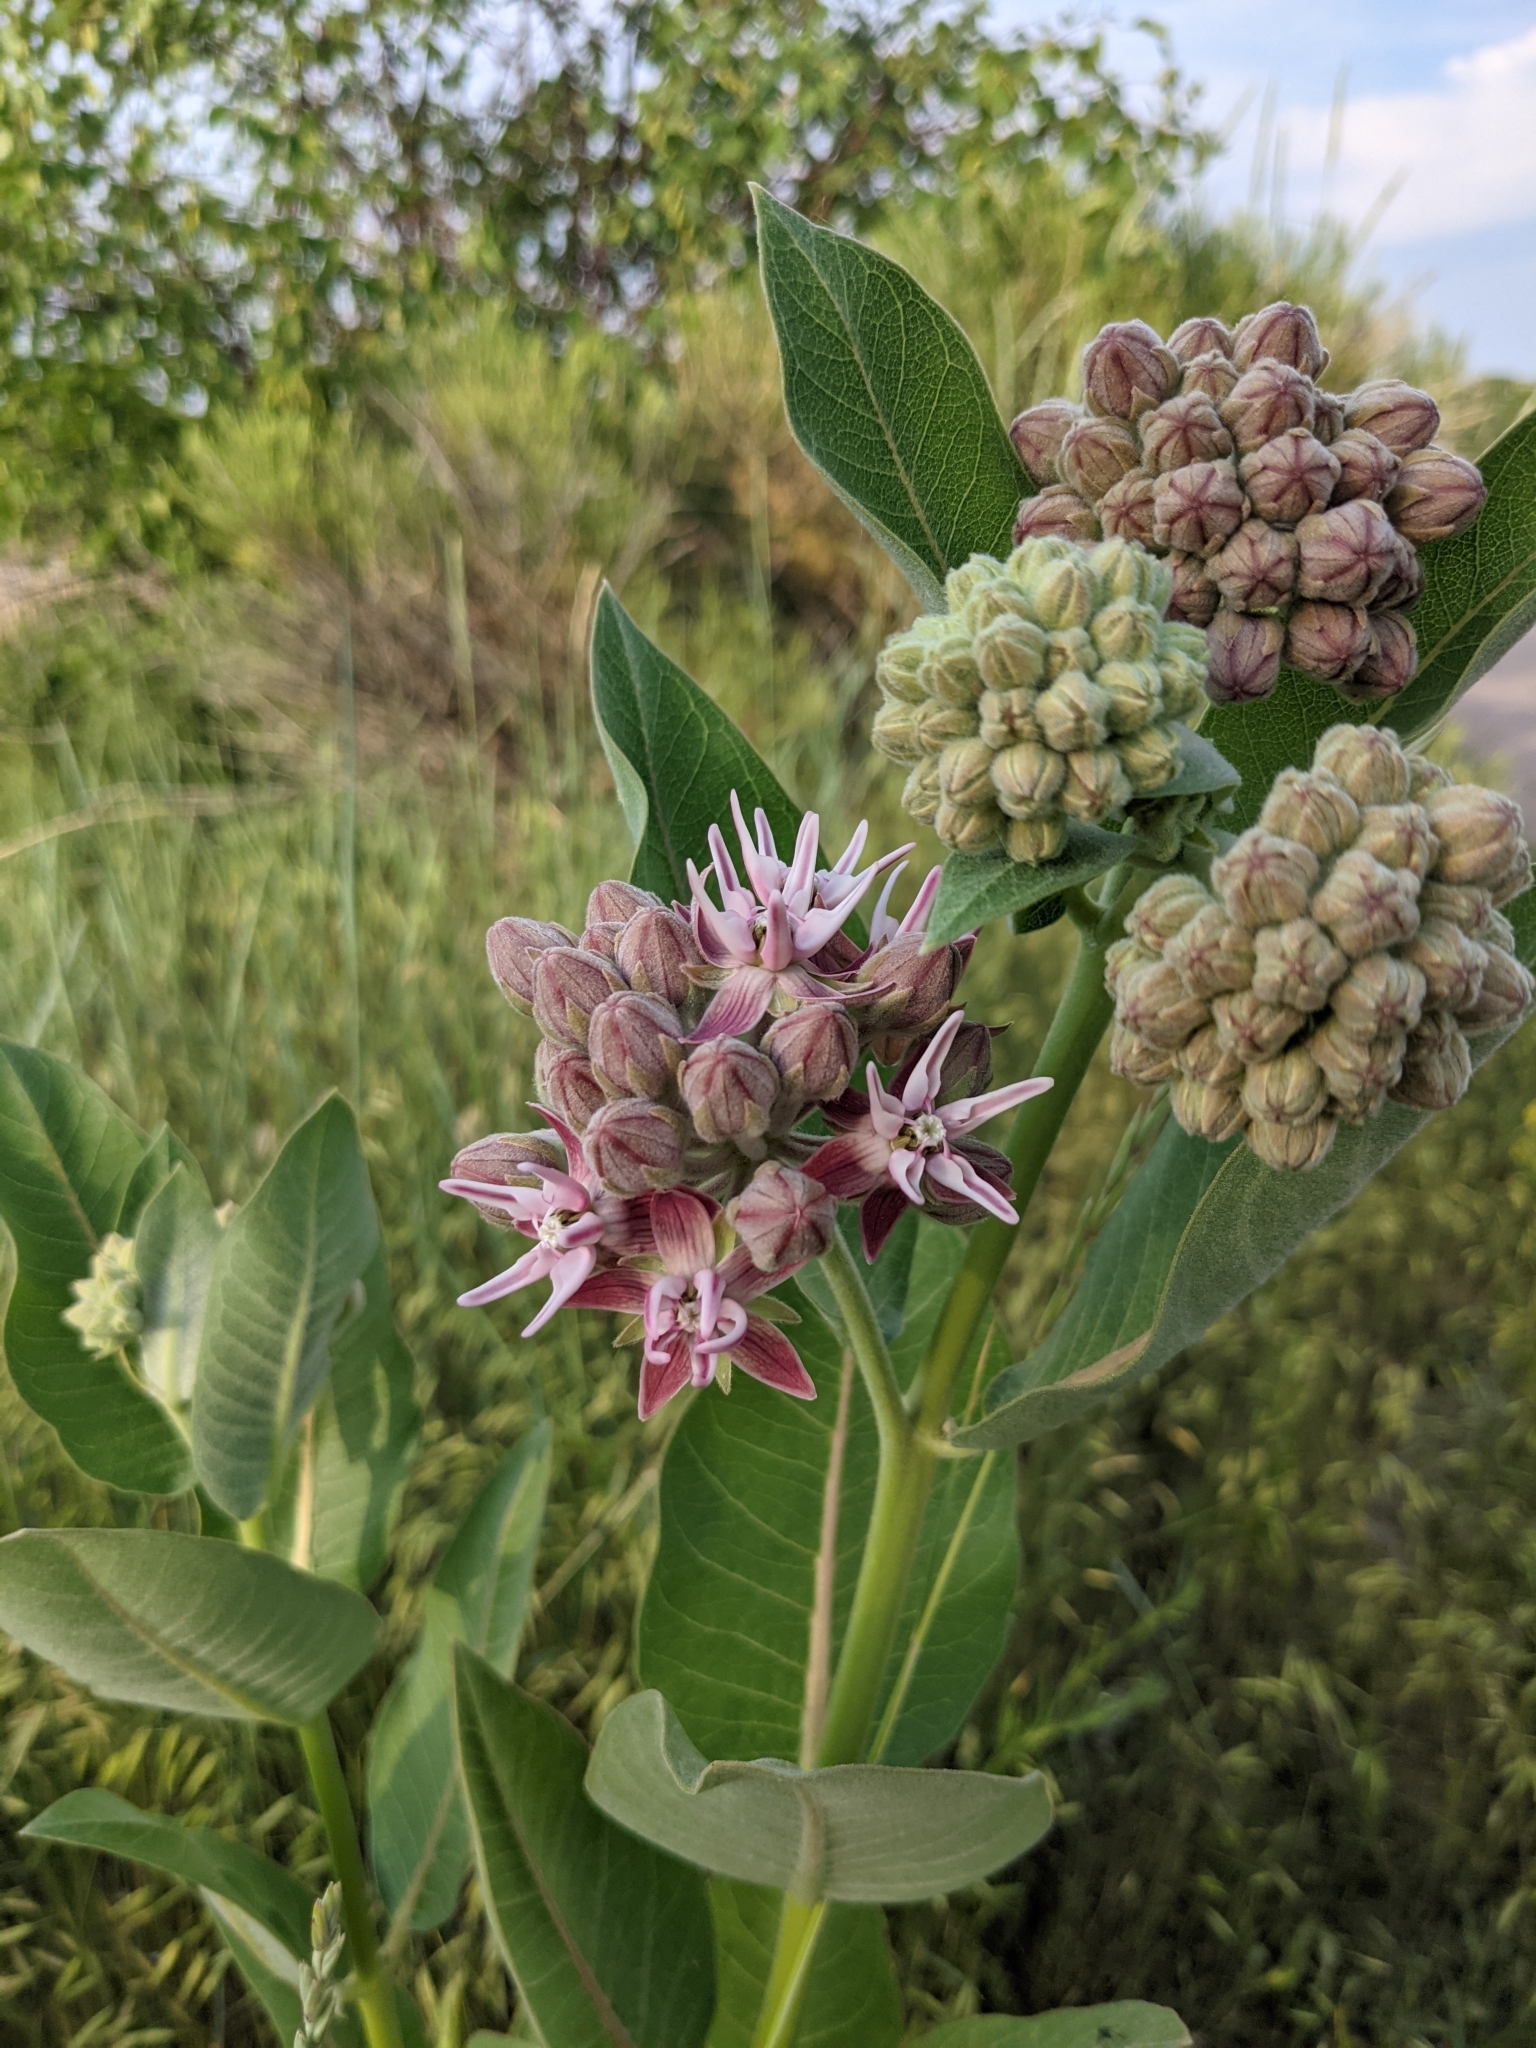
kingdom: Plantae
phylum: Tracheophyta
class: Magnoliopsida
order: Gentianales
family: Apocynaceae
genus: Asclepias
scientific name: Asclepias speciosa
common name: Showy milkweed
